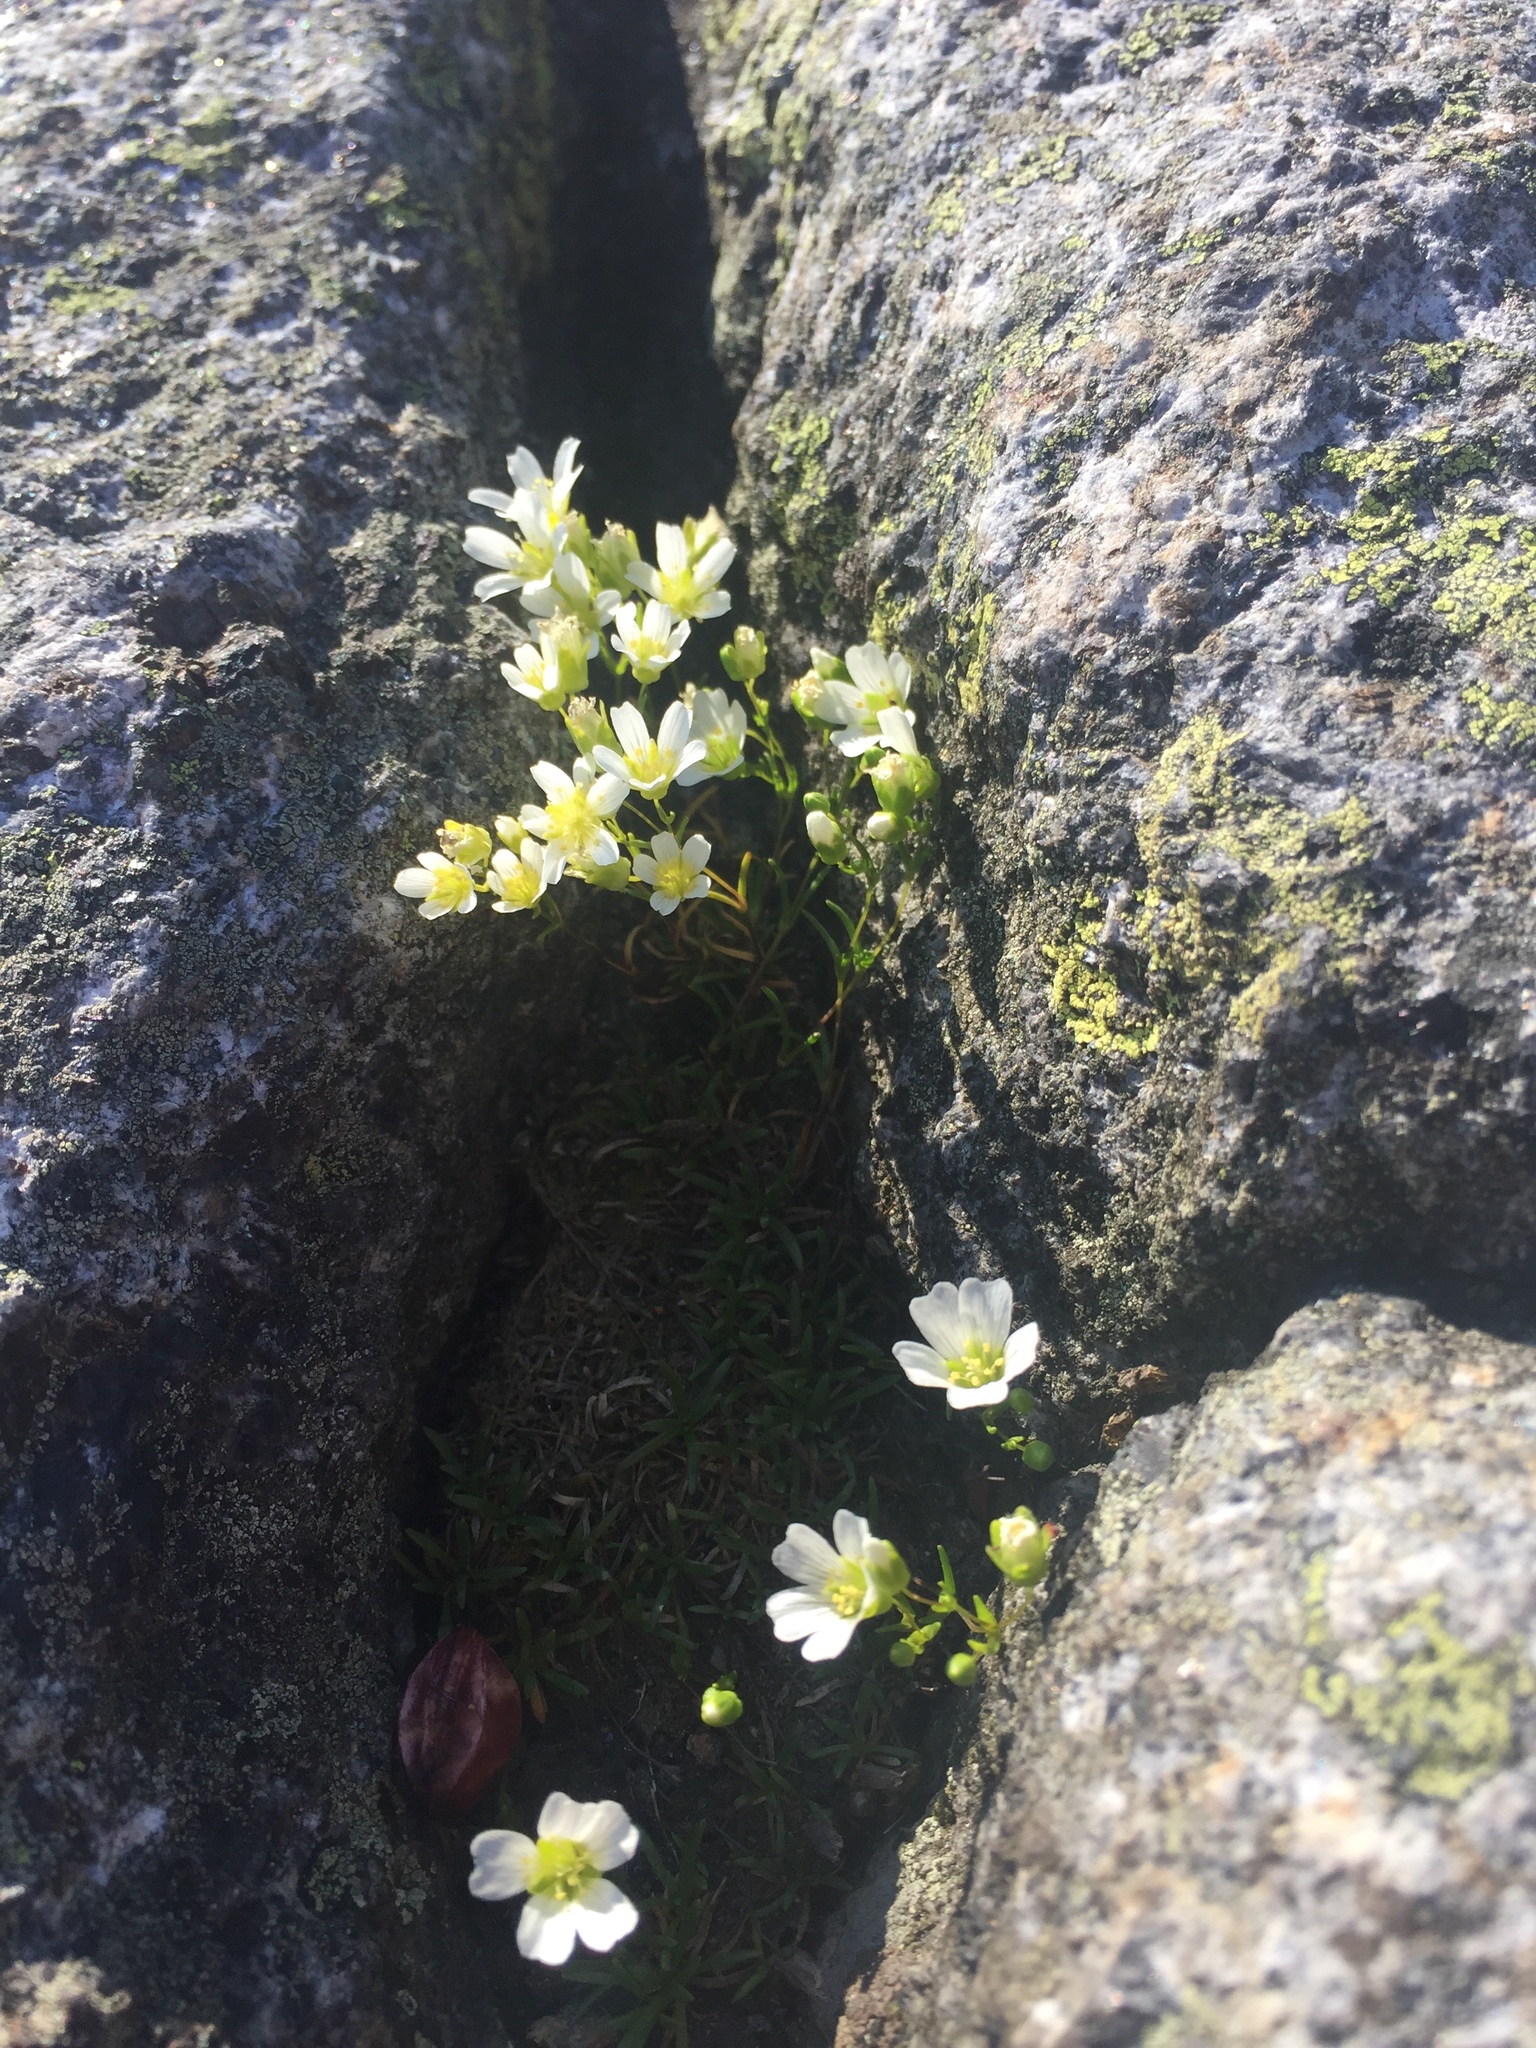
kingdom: Plantae
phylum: Tracheophyta
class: Magnoliopsida
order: Caryophyllales
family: Caryophyllaceae
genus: Geocarpon
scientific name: Geocarpon groenlandicum
